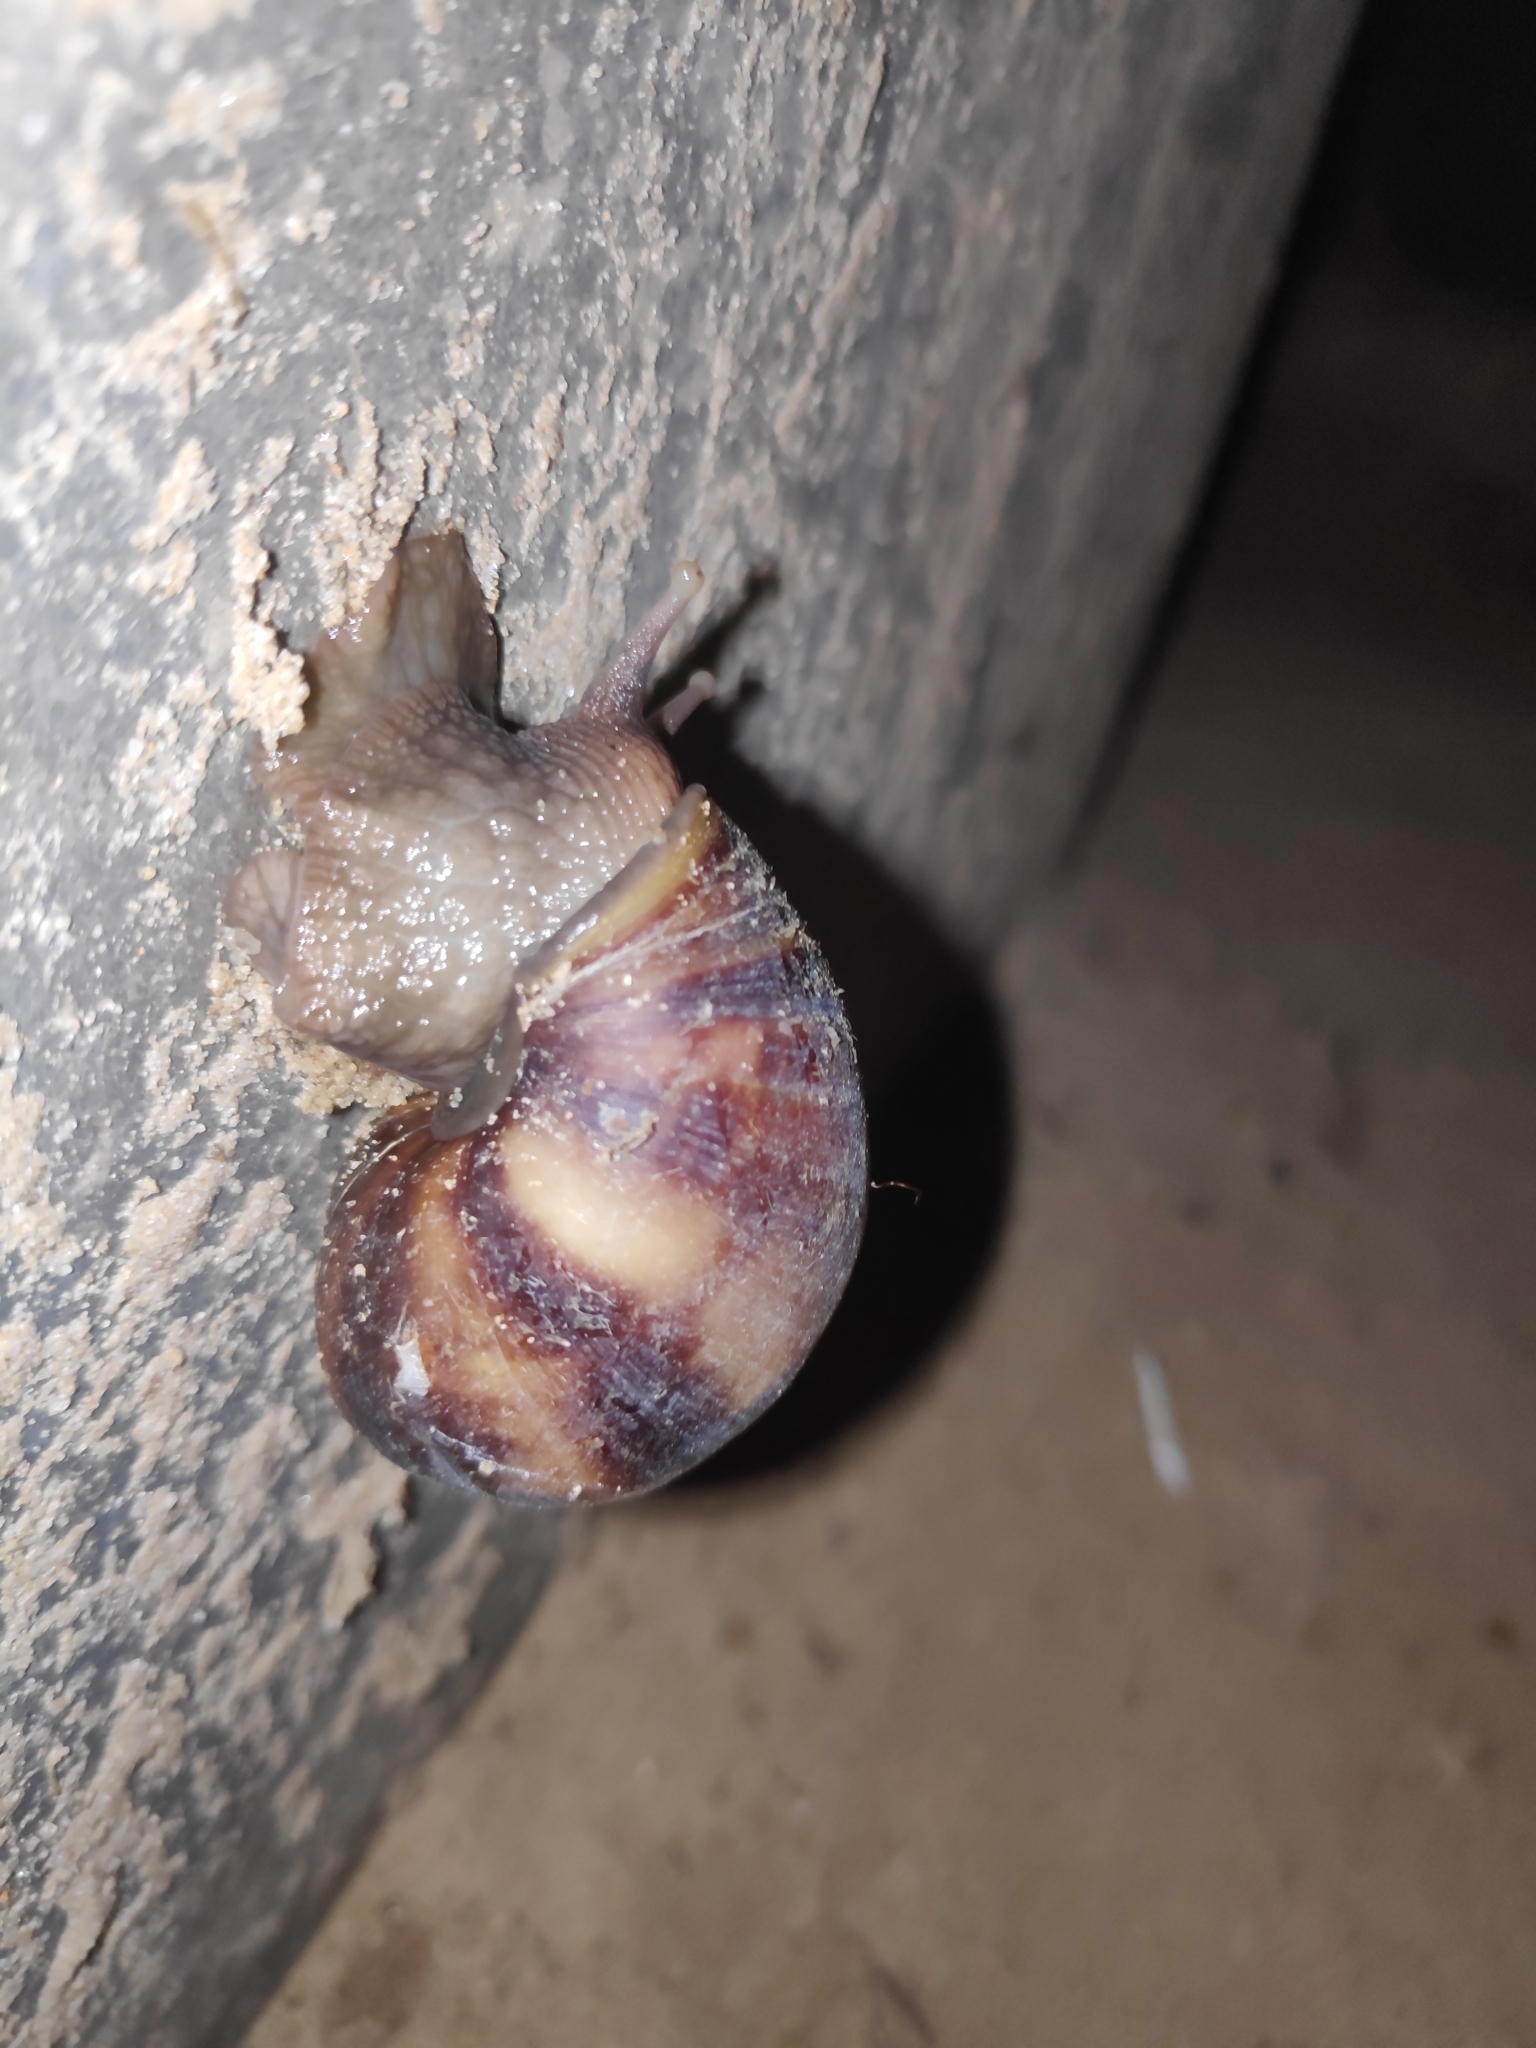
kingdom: Animalia
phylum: Mollusca
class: Gastropoda
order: Stylommatophora
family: Achatinidae
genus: Lissachatina
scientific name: Lissachatina fulica
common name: Giant african snail
